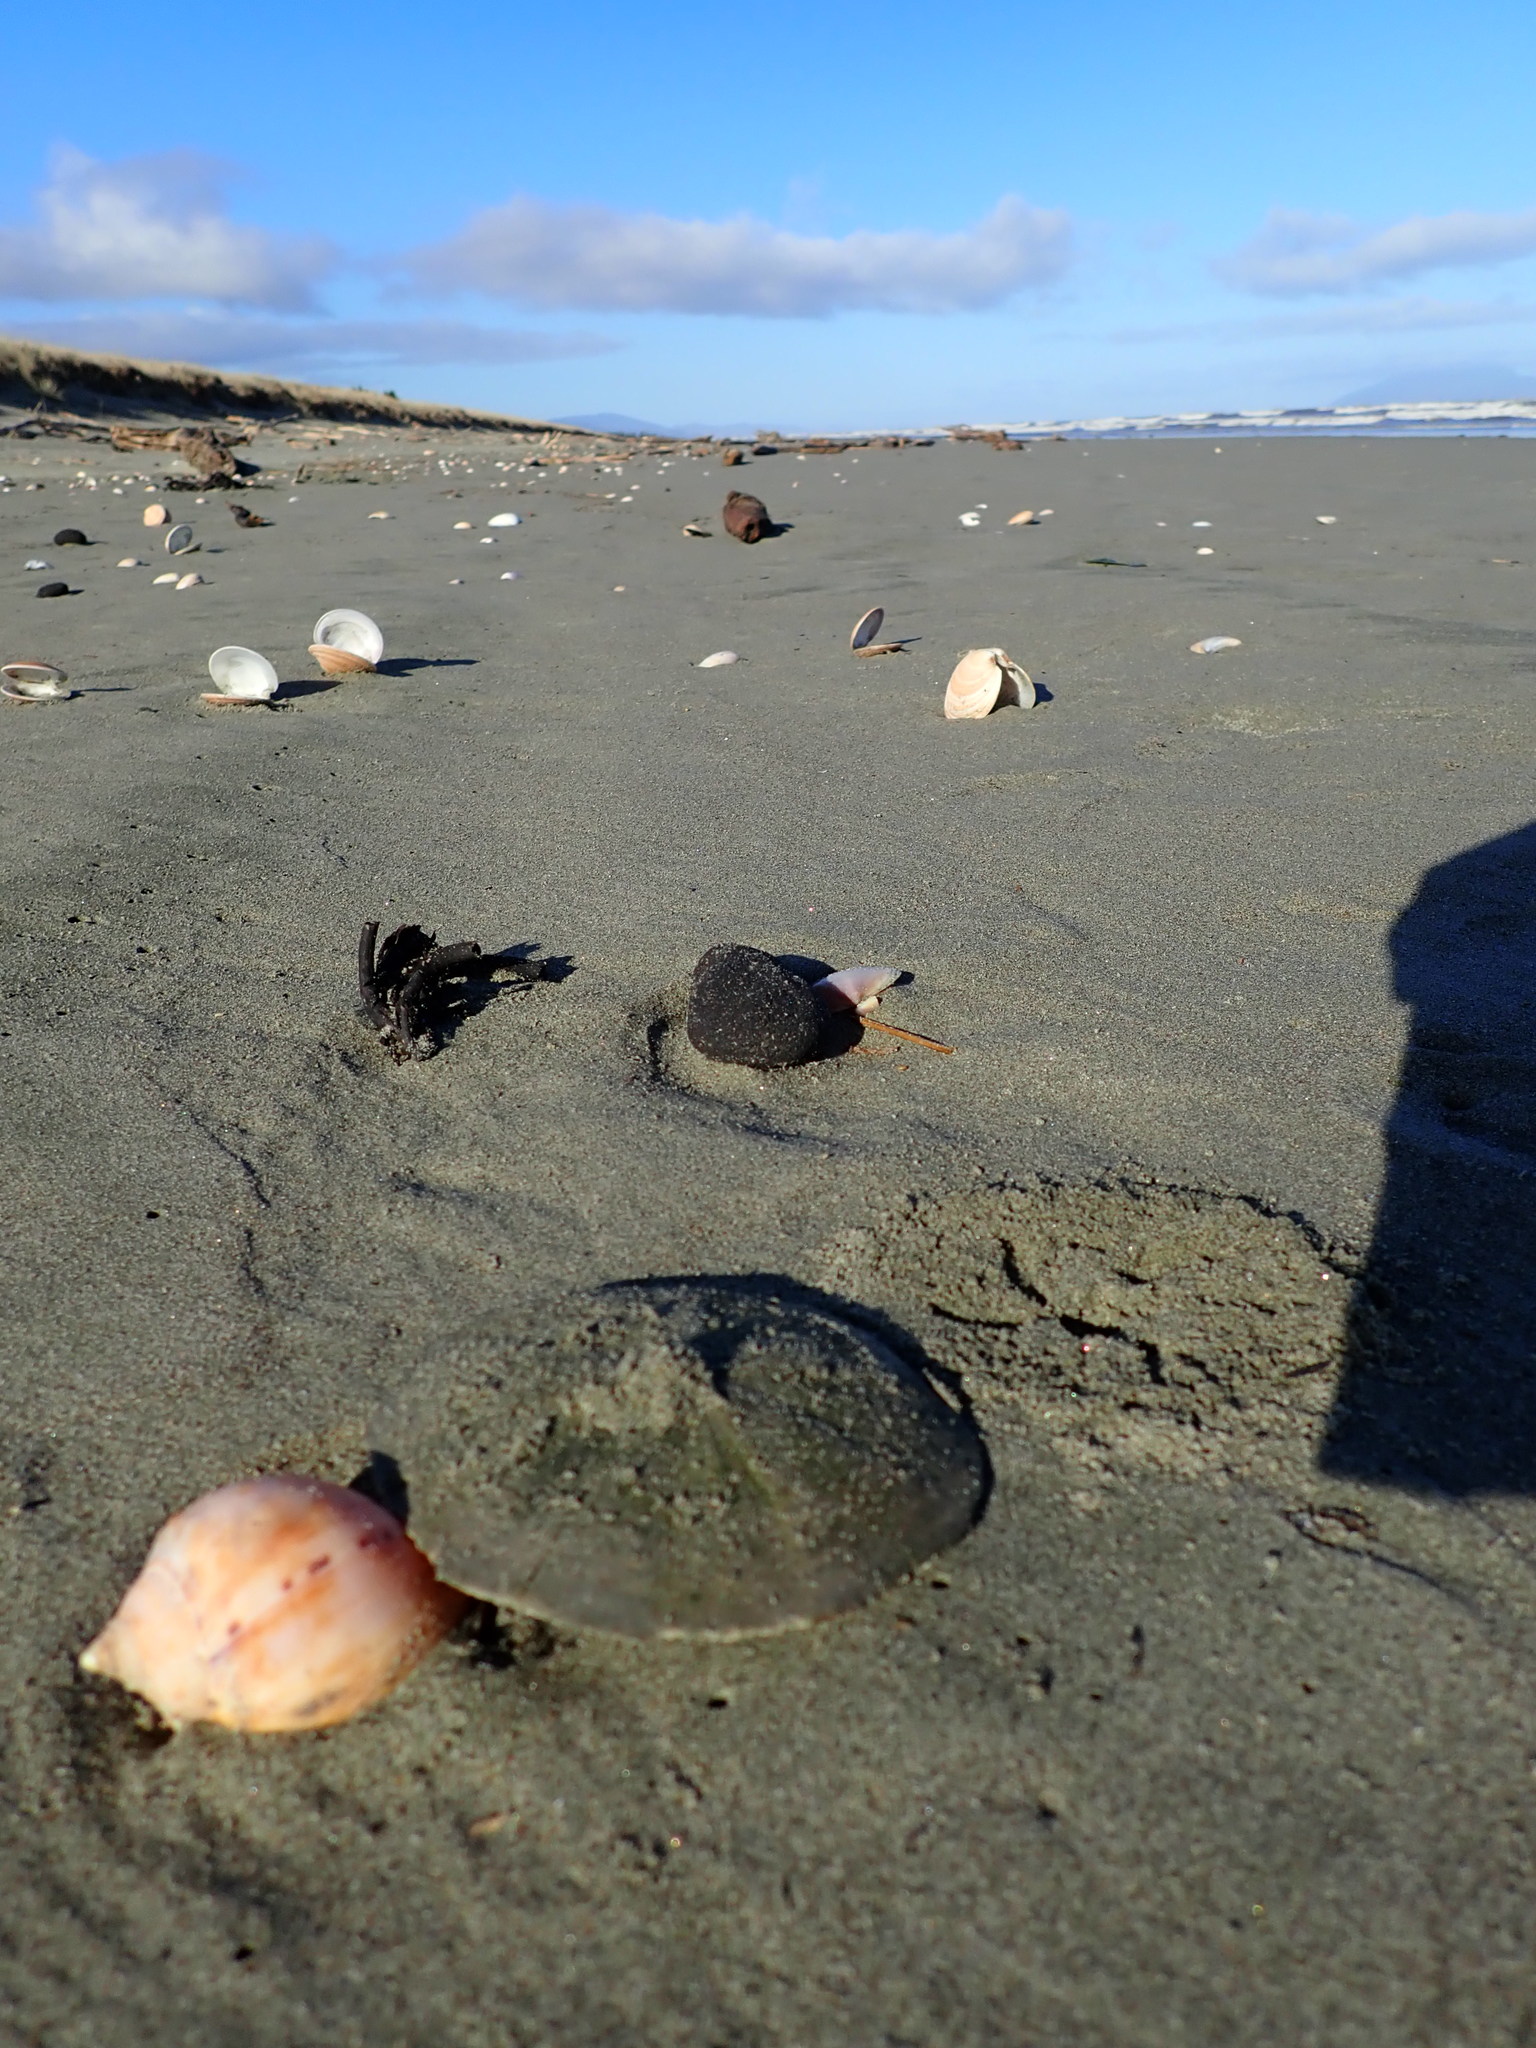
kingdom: Animalia
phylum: Echinodermata
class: Echinoidea
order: Clypeasteroida
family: Clypeasteridae
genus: Fellaster
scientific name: Fellaster zelandiae
